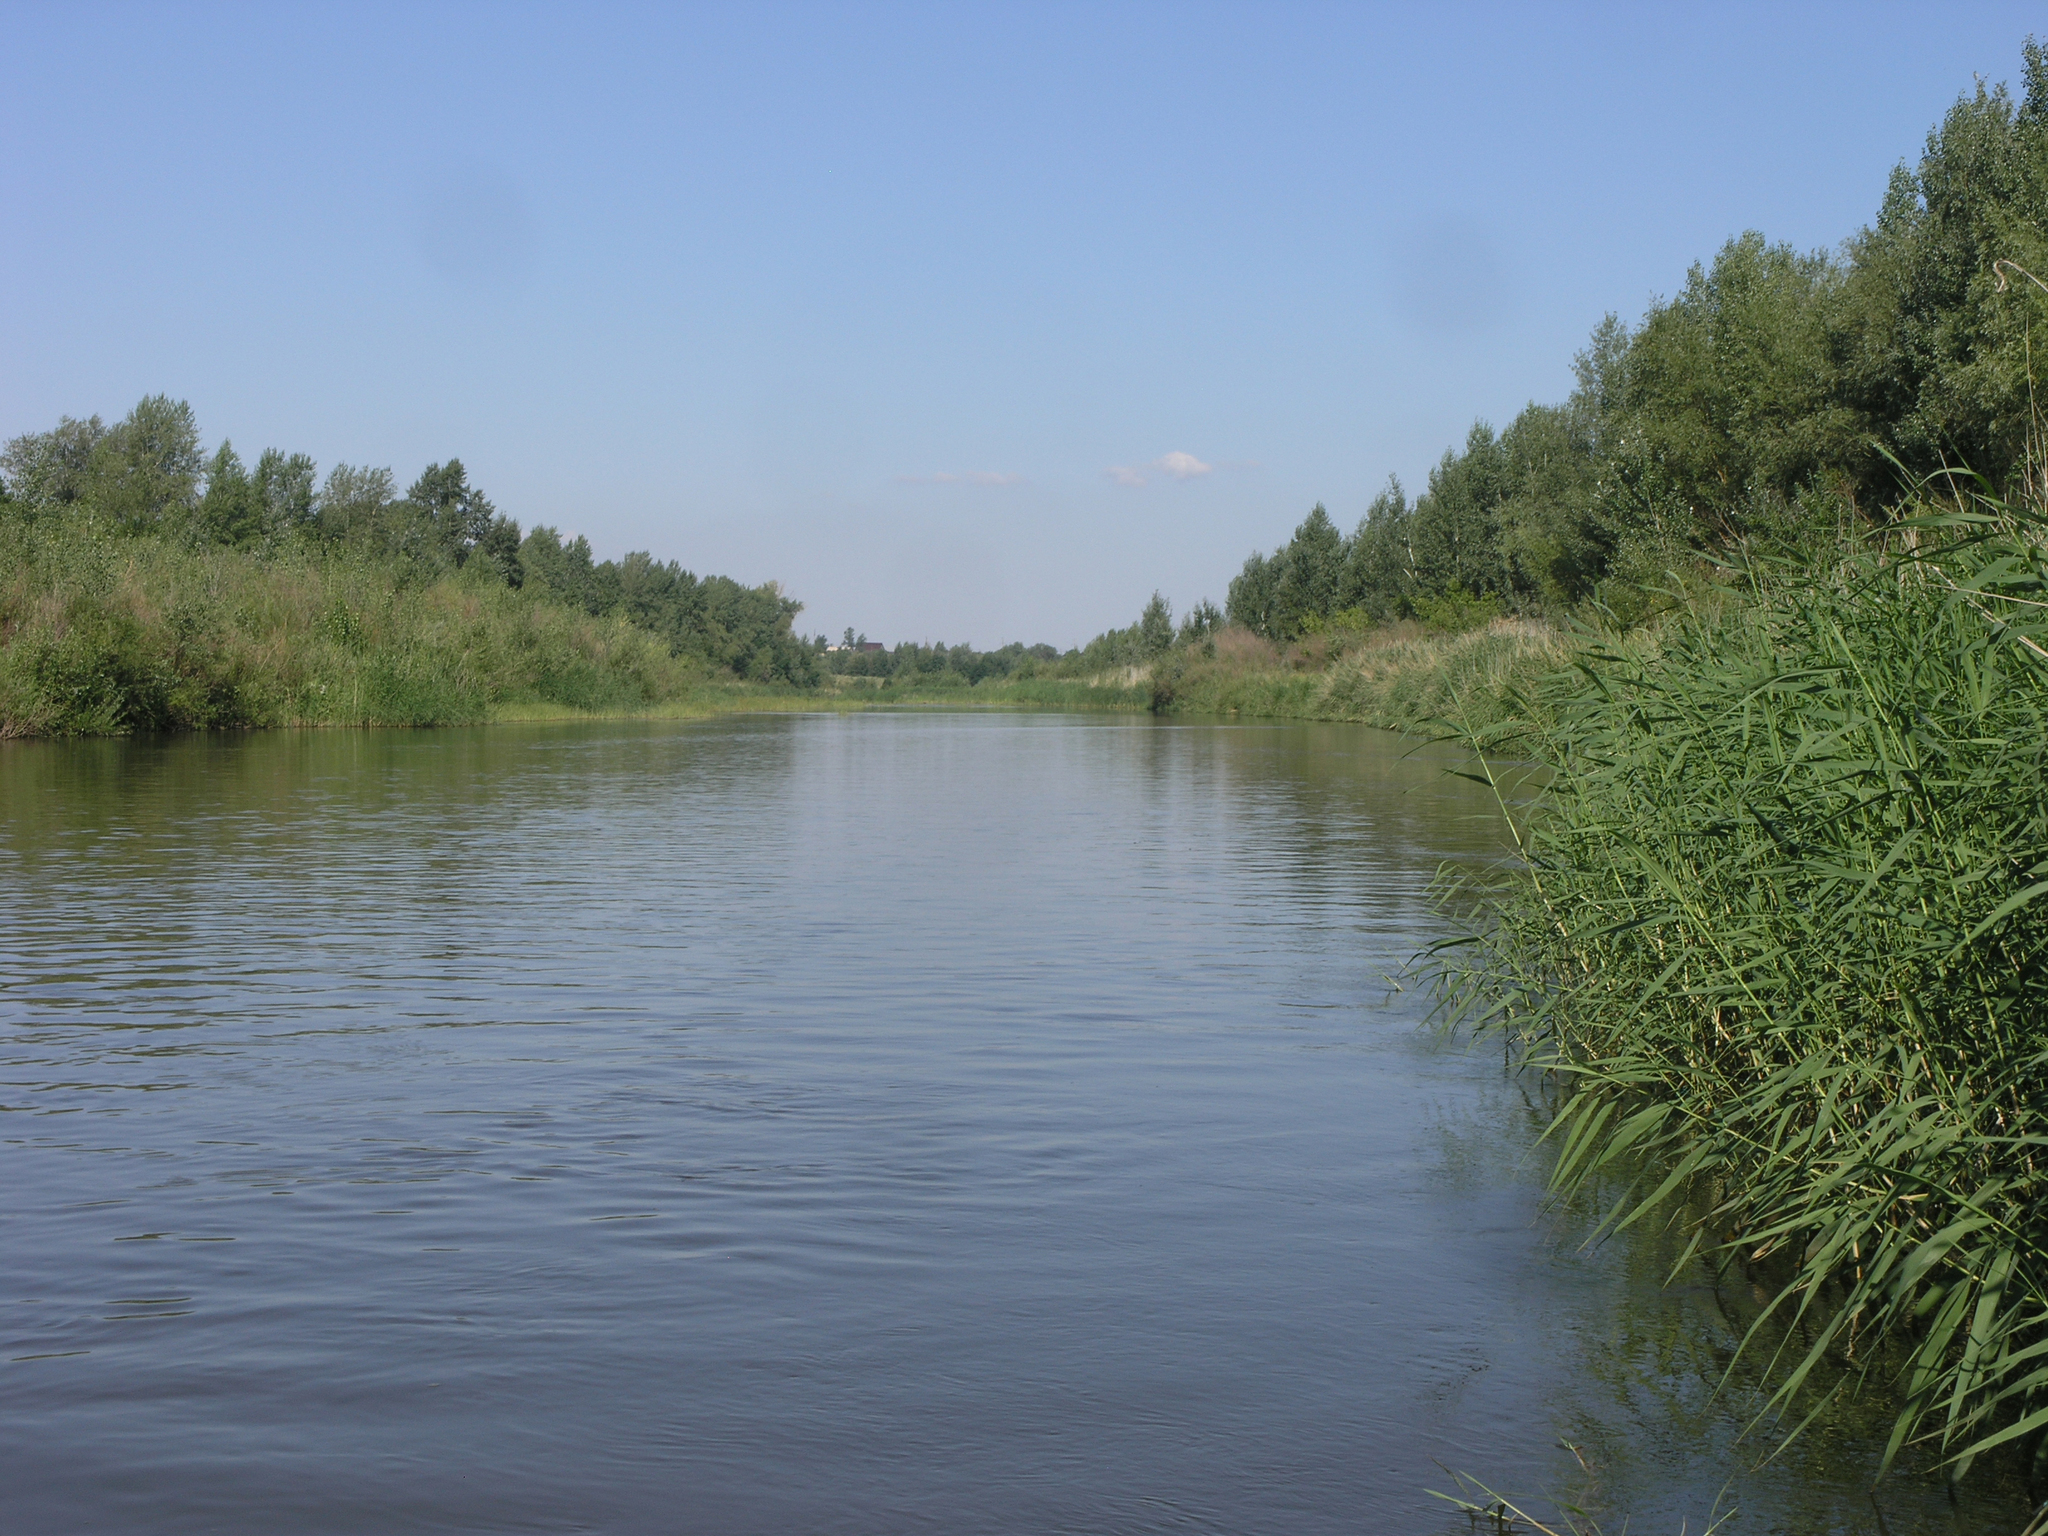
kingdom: Plantae
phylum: Tracheophyta
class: Liliopsida
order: Poales
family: Poaceae
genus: Phragmites
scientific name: Phragmites australis
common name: Common reed
